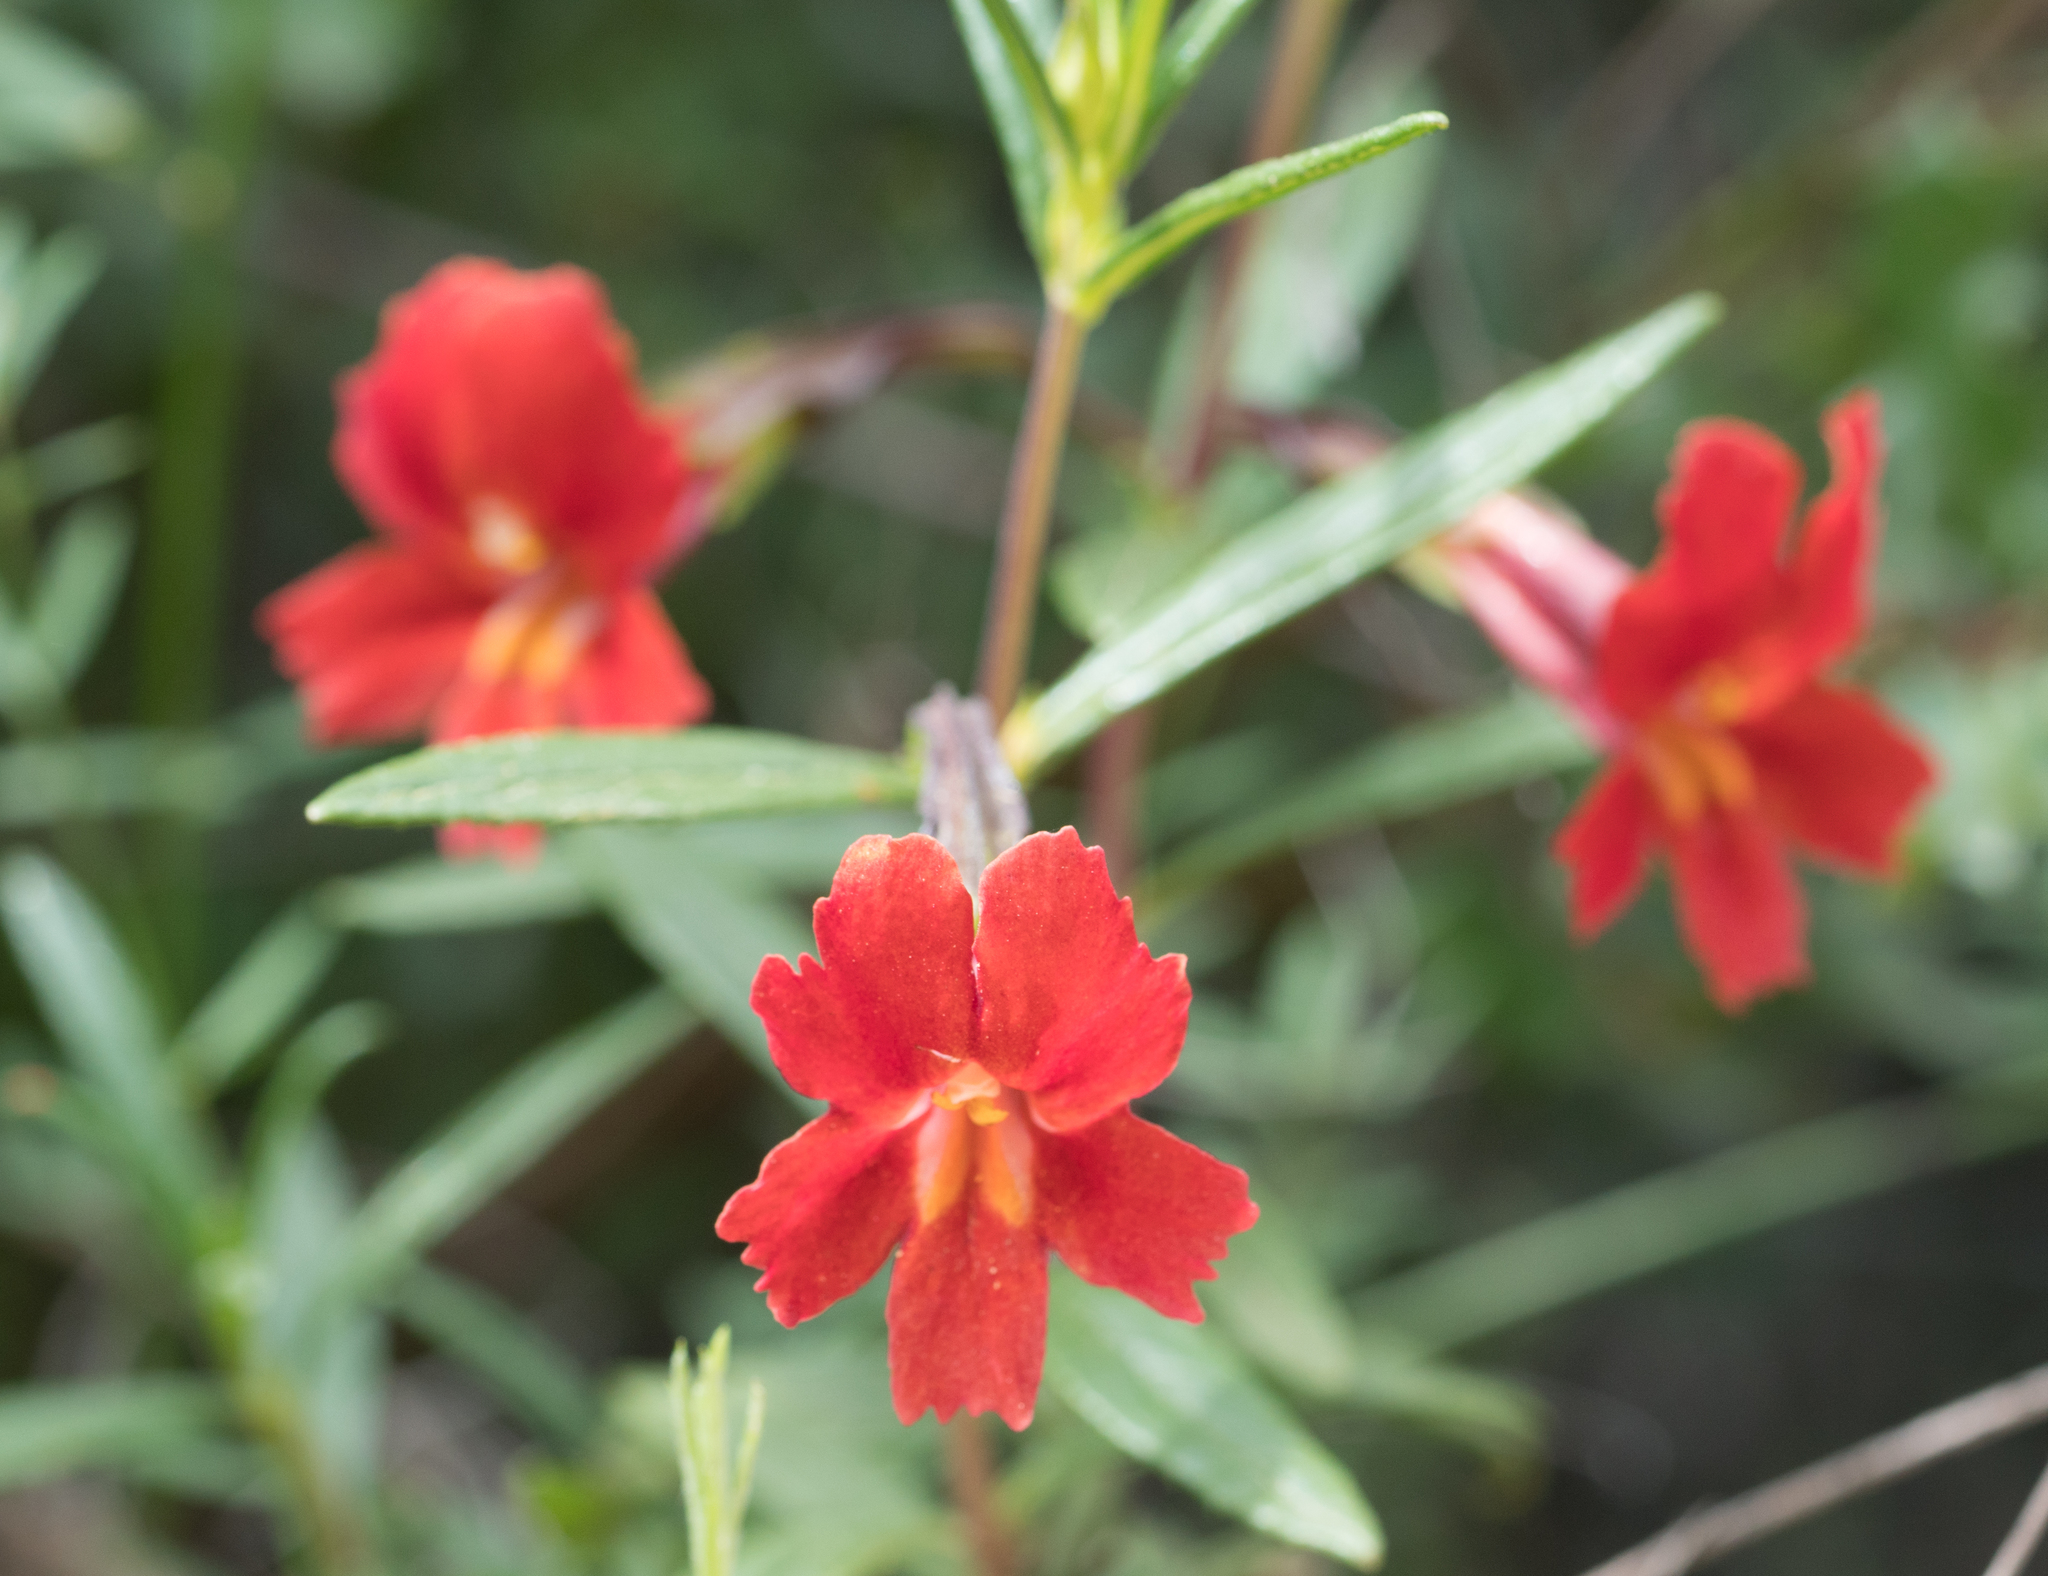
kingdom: Plantae
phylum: Tracheophyta
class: Magnoliopsida
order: Lamiales
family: Phrymaceae
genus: Diplacus
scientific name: Diplacus puniceus
